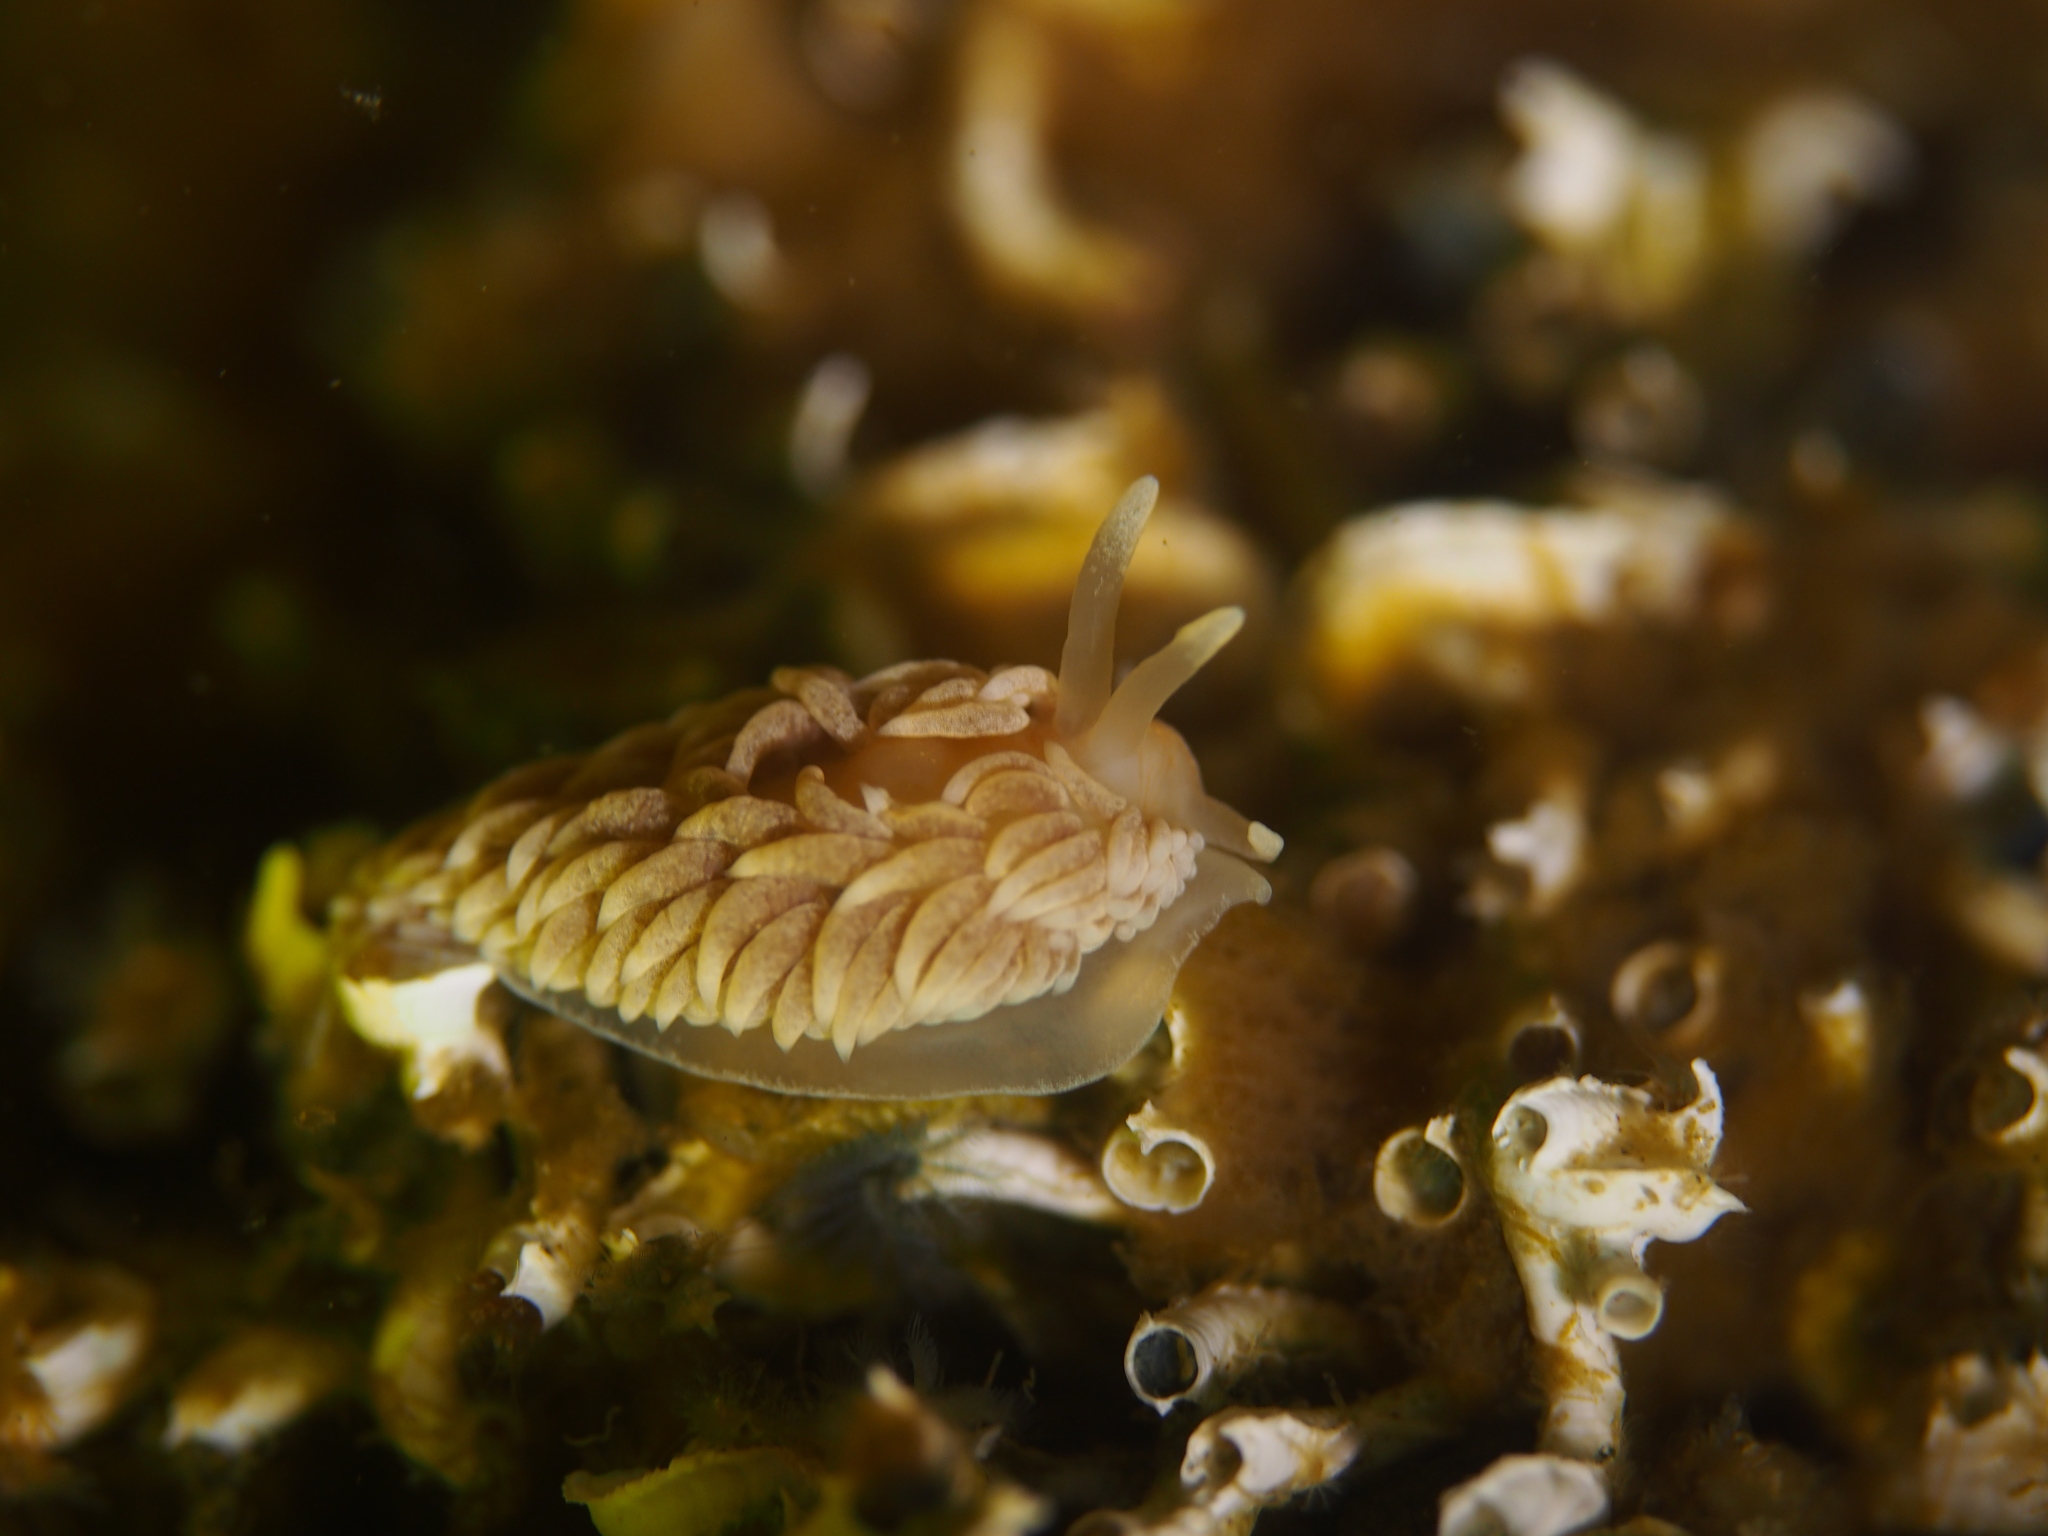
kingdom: Animalia
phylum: Mollusca
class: Gastropoda
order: Nudibranchia
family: Aeolidiidae
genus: Aeolidiella
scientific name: Aeolidiella glauca
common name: Orange-brown aeolid
